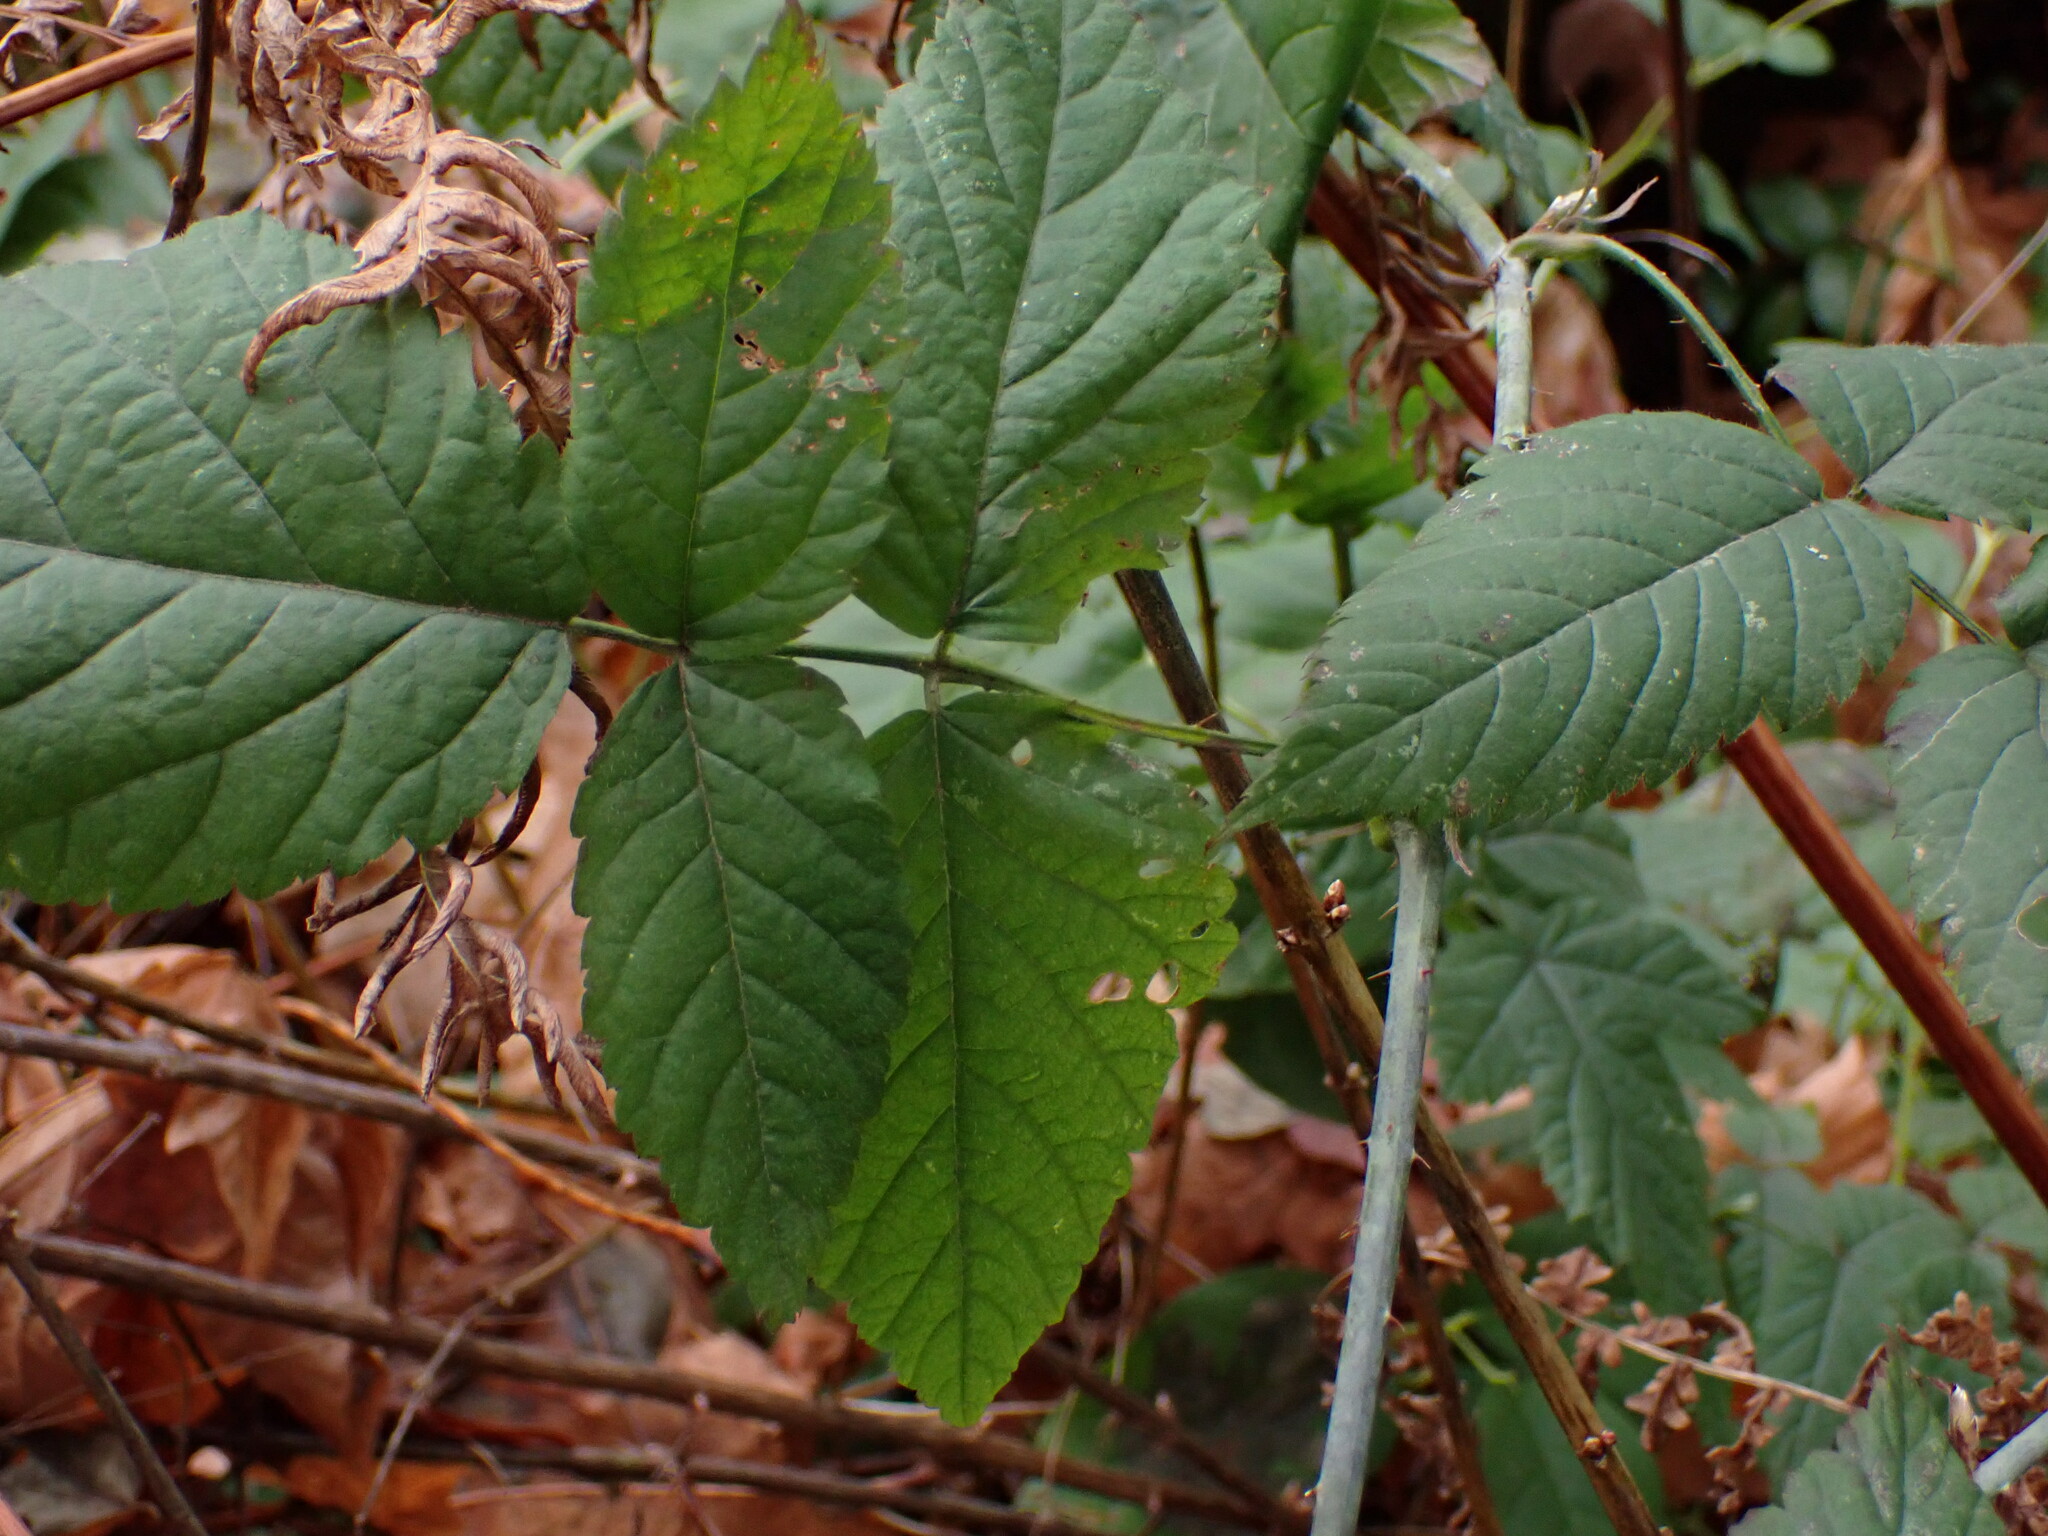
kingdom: Plantae
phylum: Tracheophyta
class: Magnoliopsida
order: Rosales
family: Rosaceae
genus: Rubus
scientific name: Rubus ursinus
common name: Pacific blackberry
